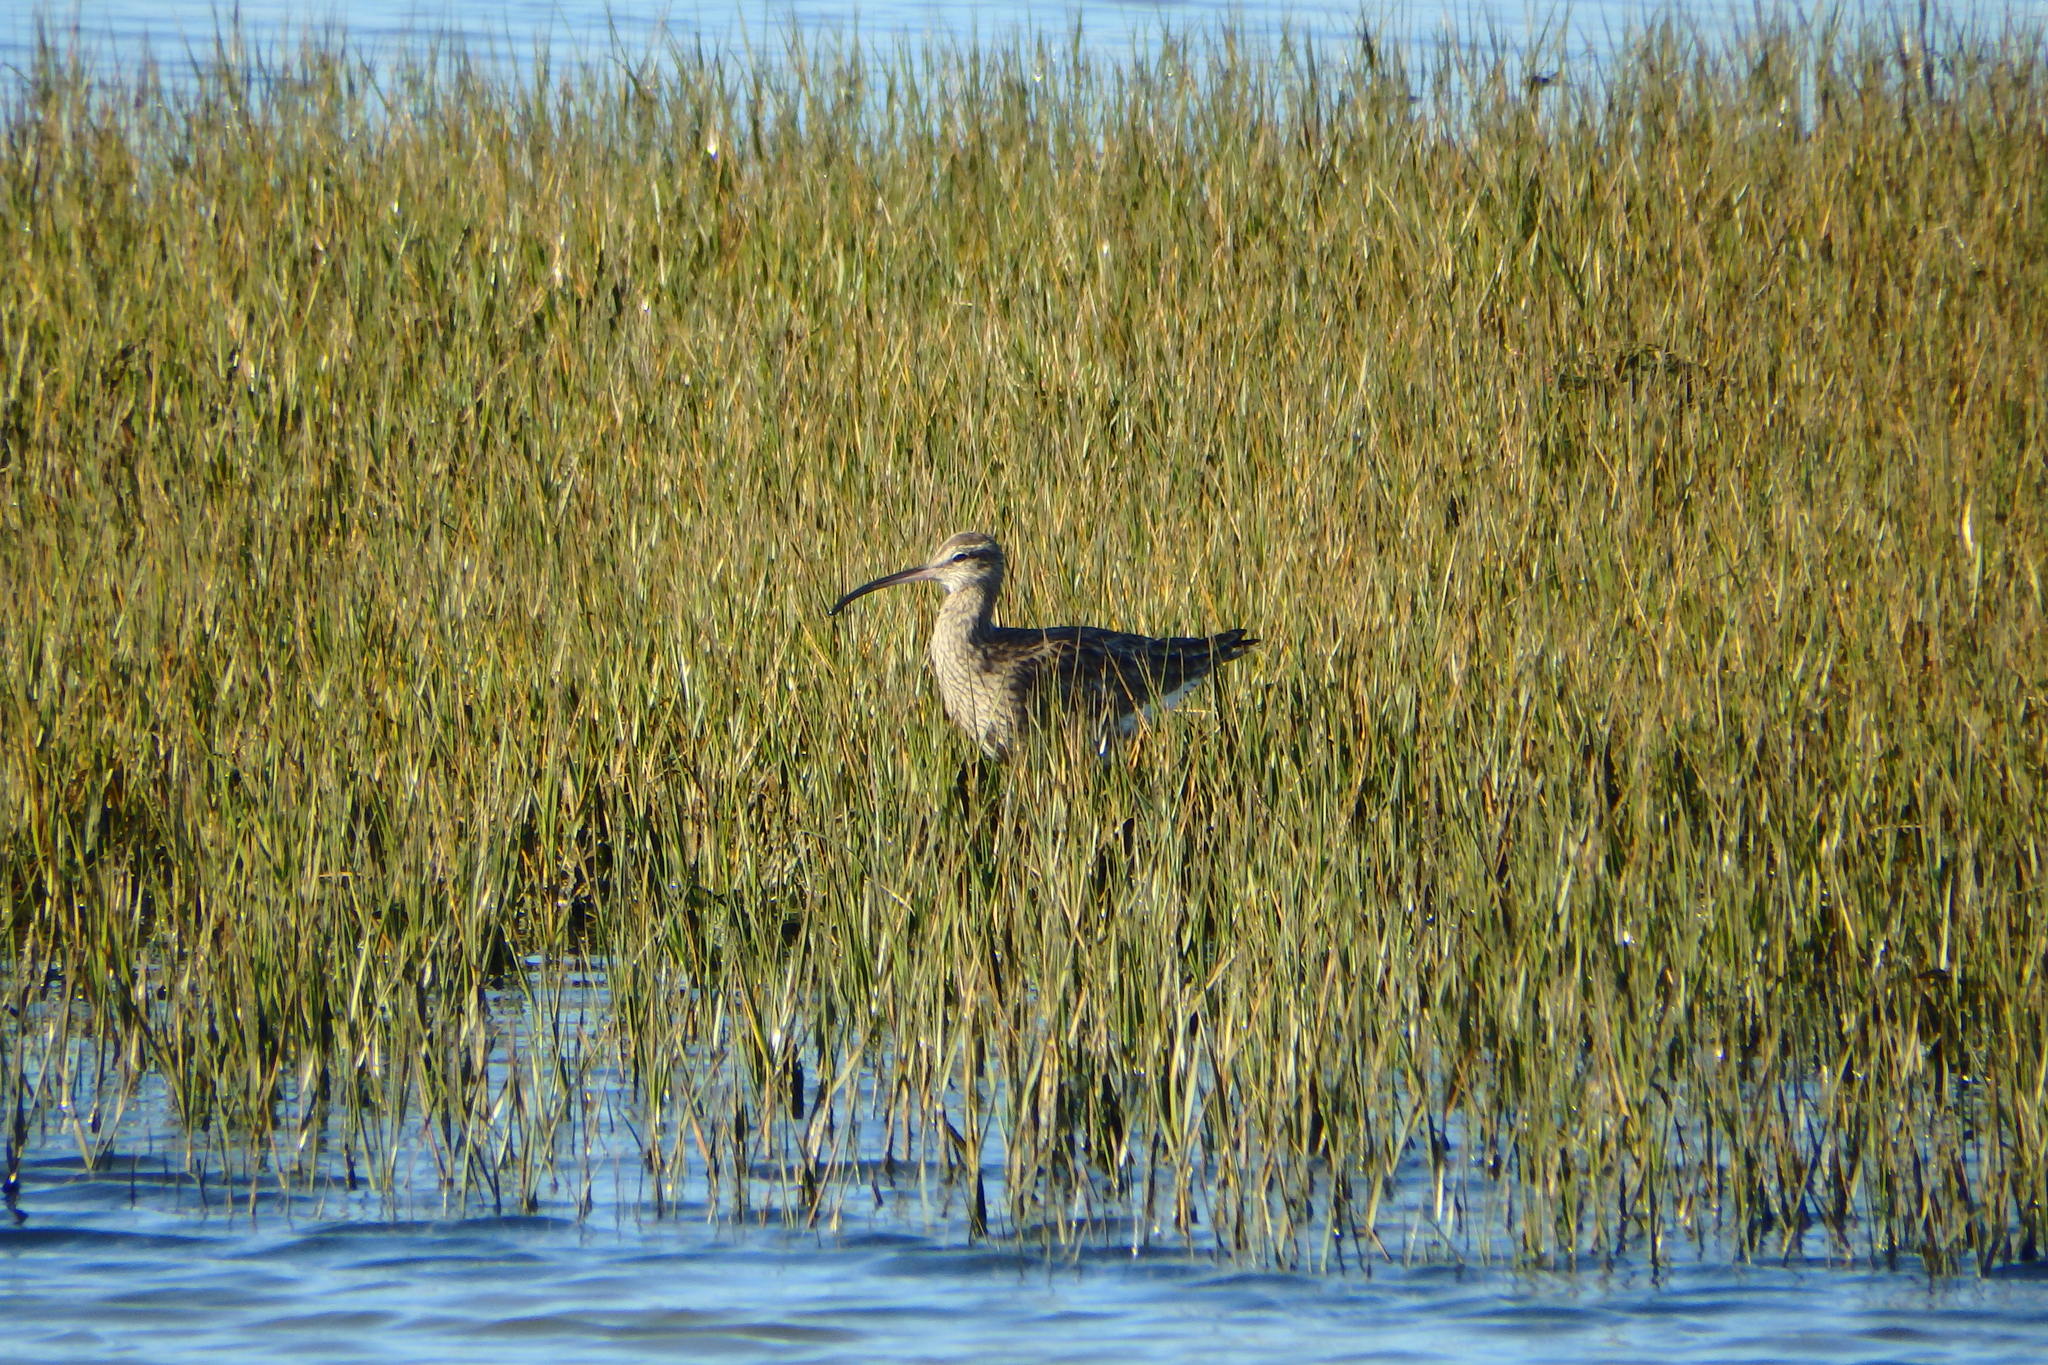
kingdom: Animalia
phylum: Chordata
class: Aves
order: Charadriiformes
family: Scolopacidae
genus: Numenius
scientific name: Numenius phaeopus
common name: Whimbrel
